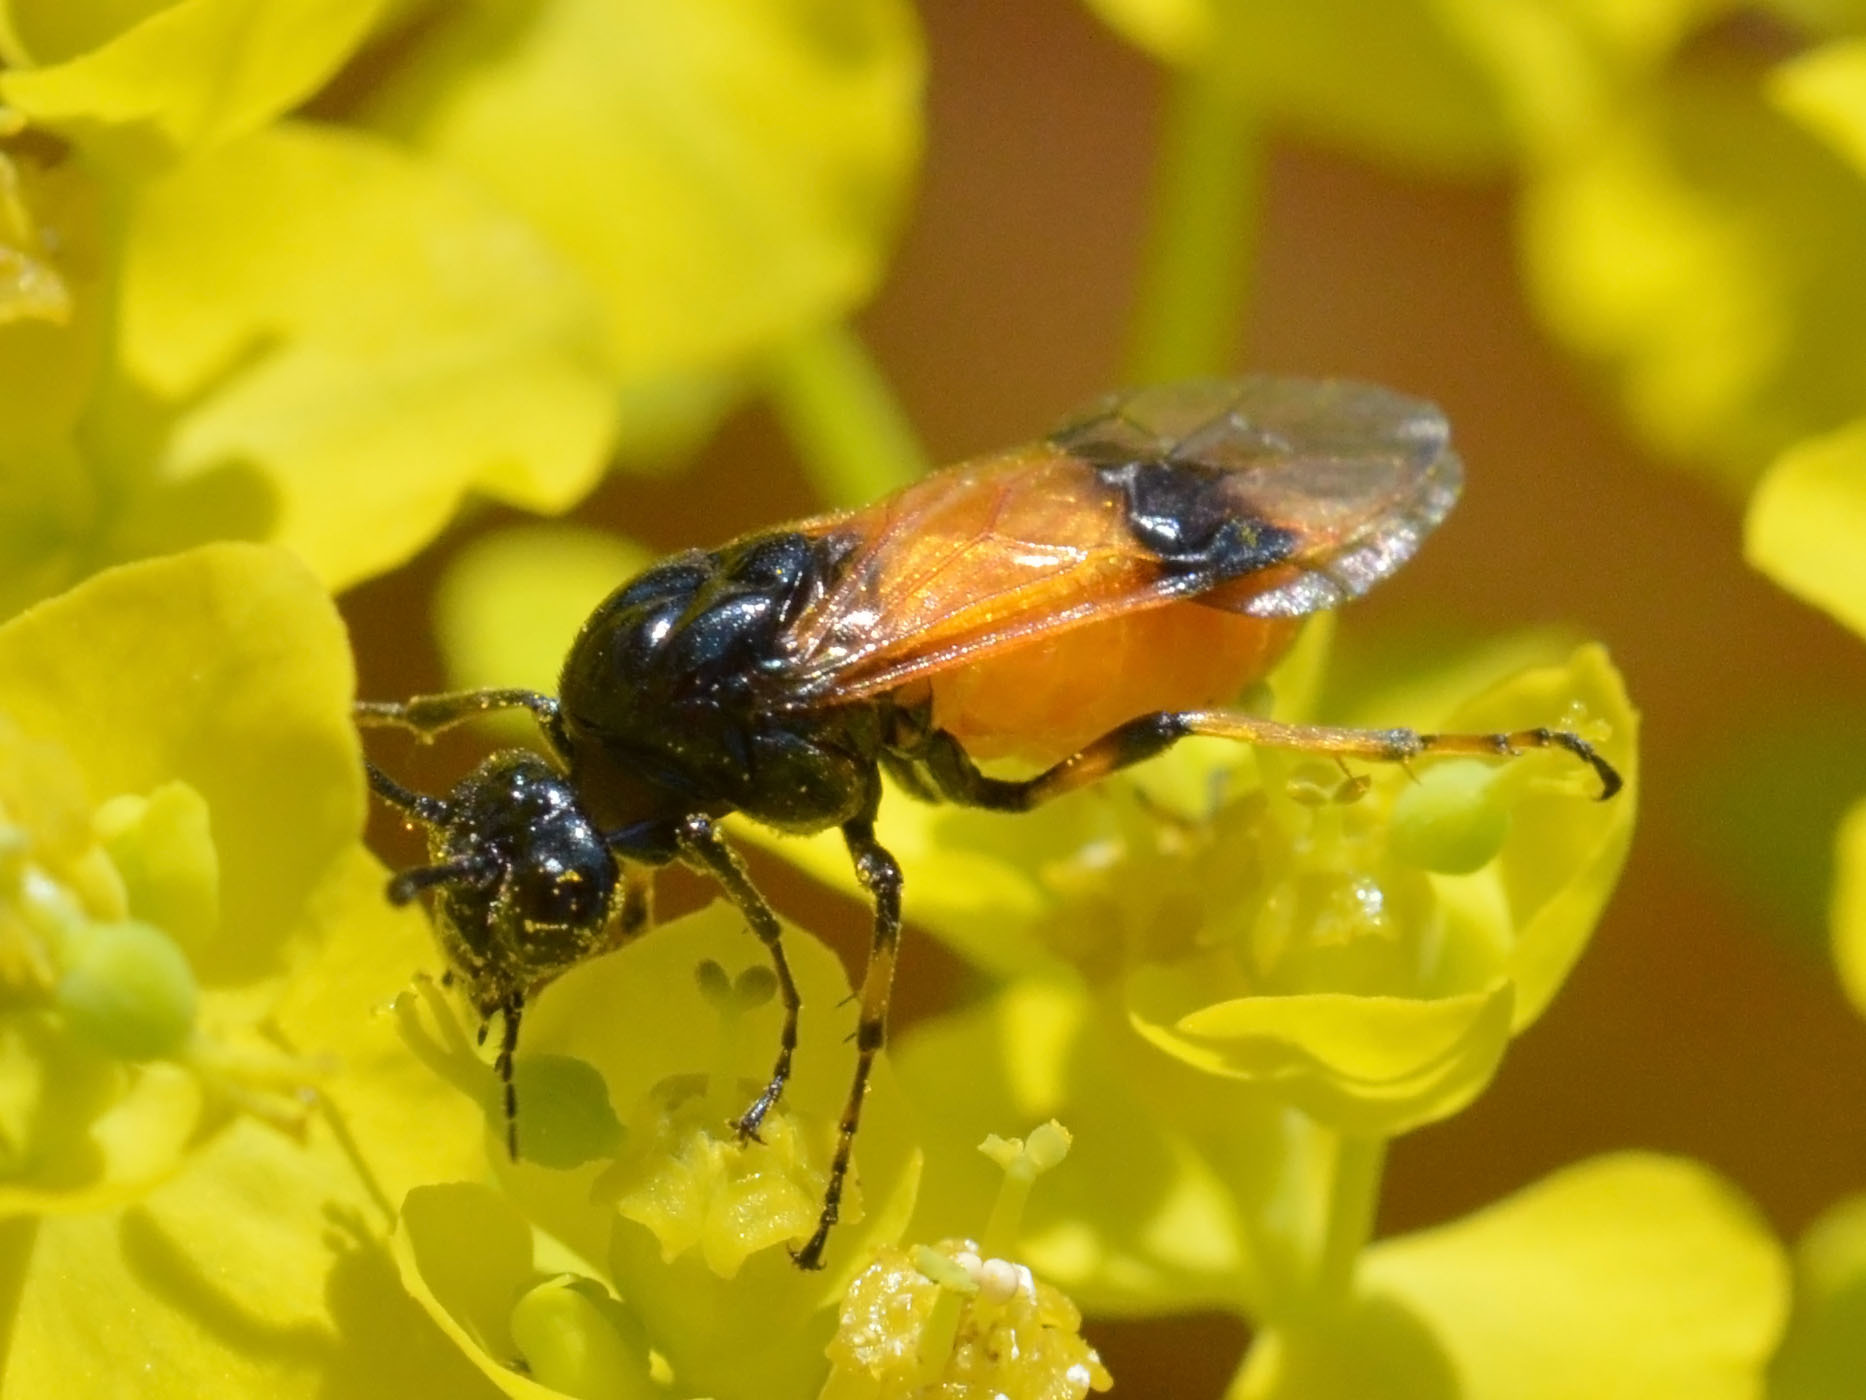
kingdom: Animalia
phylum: Arthropoda
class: Insecta
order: Hymenoptera
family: Argidae
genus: Arge
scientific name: Arge cyanocrocea
